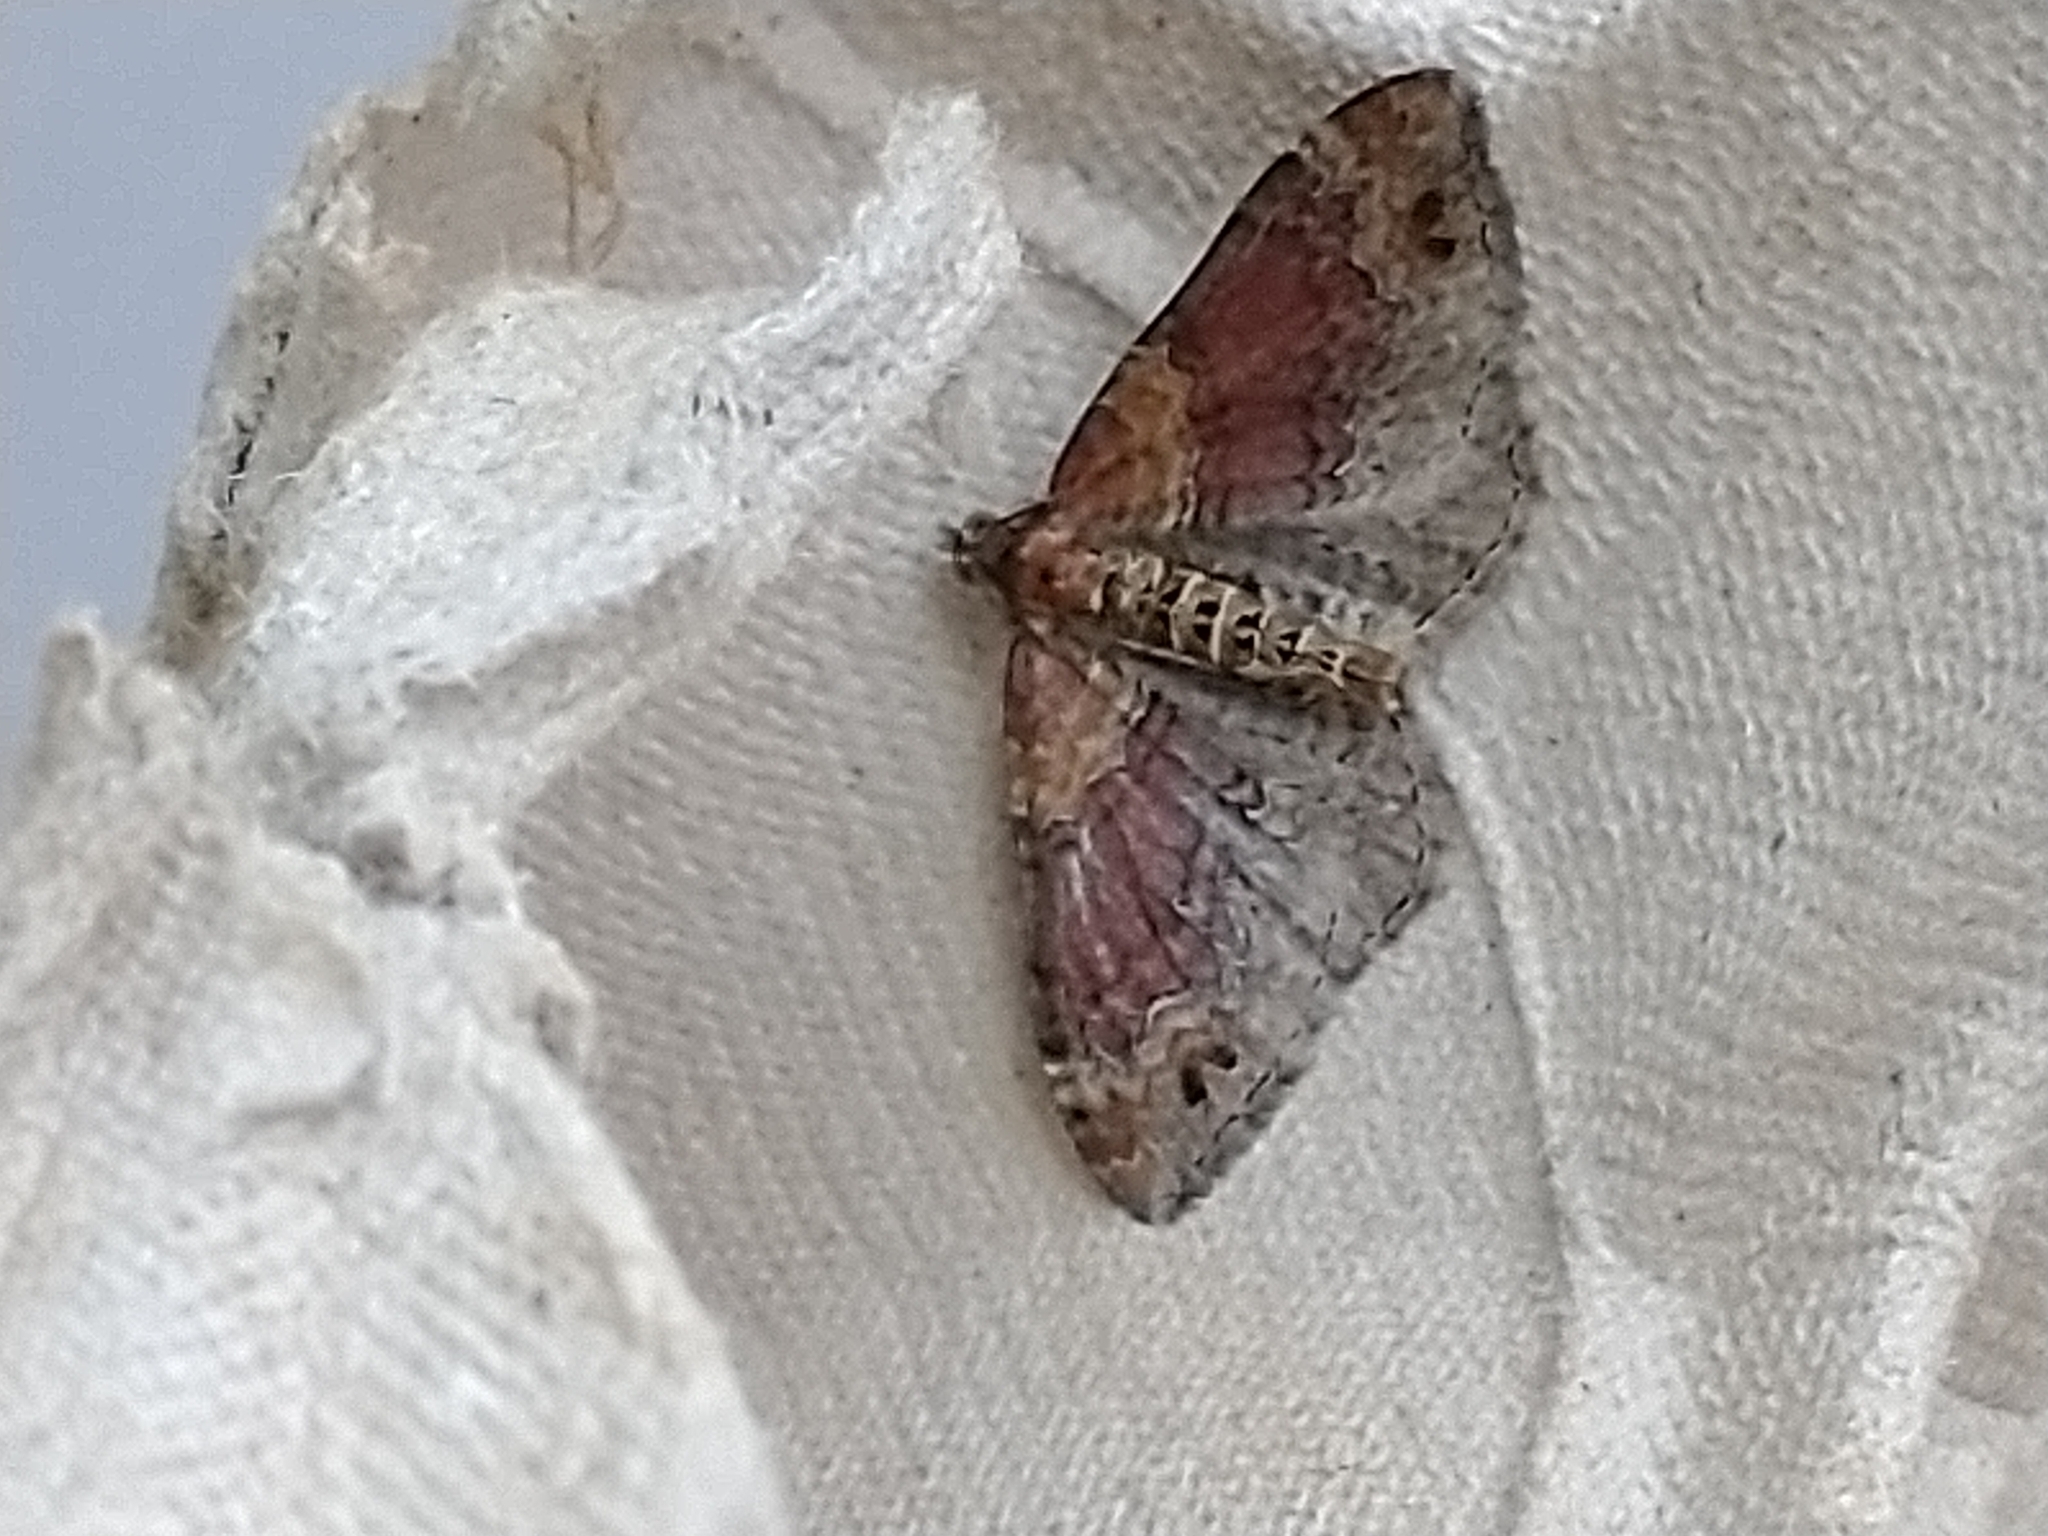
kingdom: Animalia
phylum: Arthropoda
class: Insecta
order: Lepidoptera
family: Geometridae
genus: Xanthorhoe
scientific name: Xanthorhoe spadicearia
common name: Red twin-spot carpet
